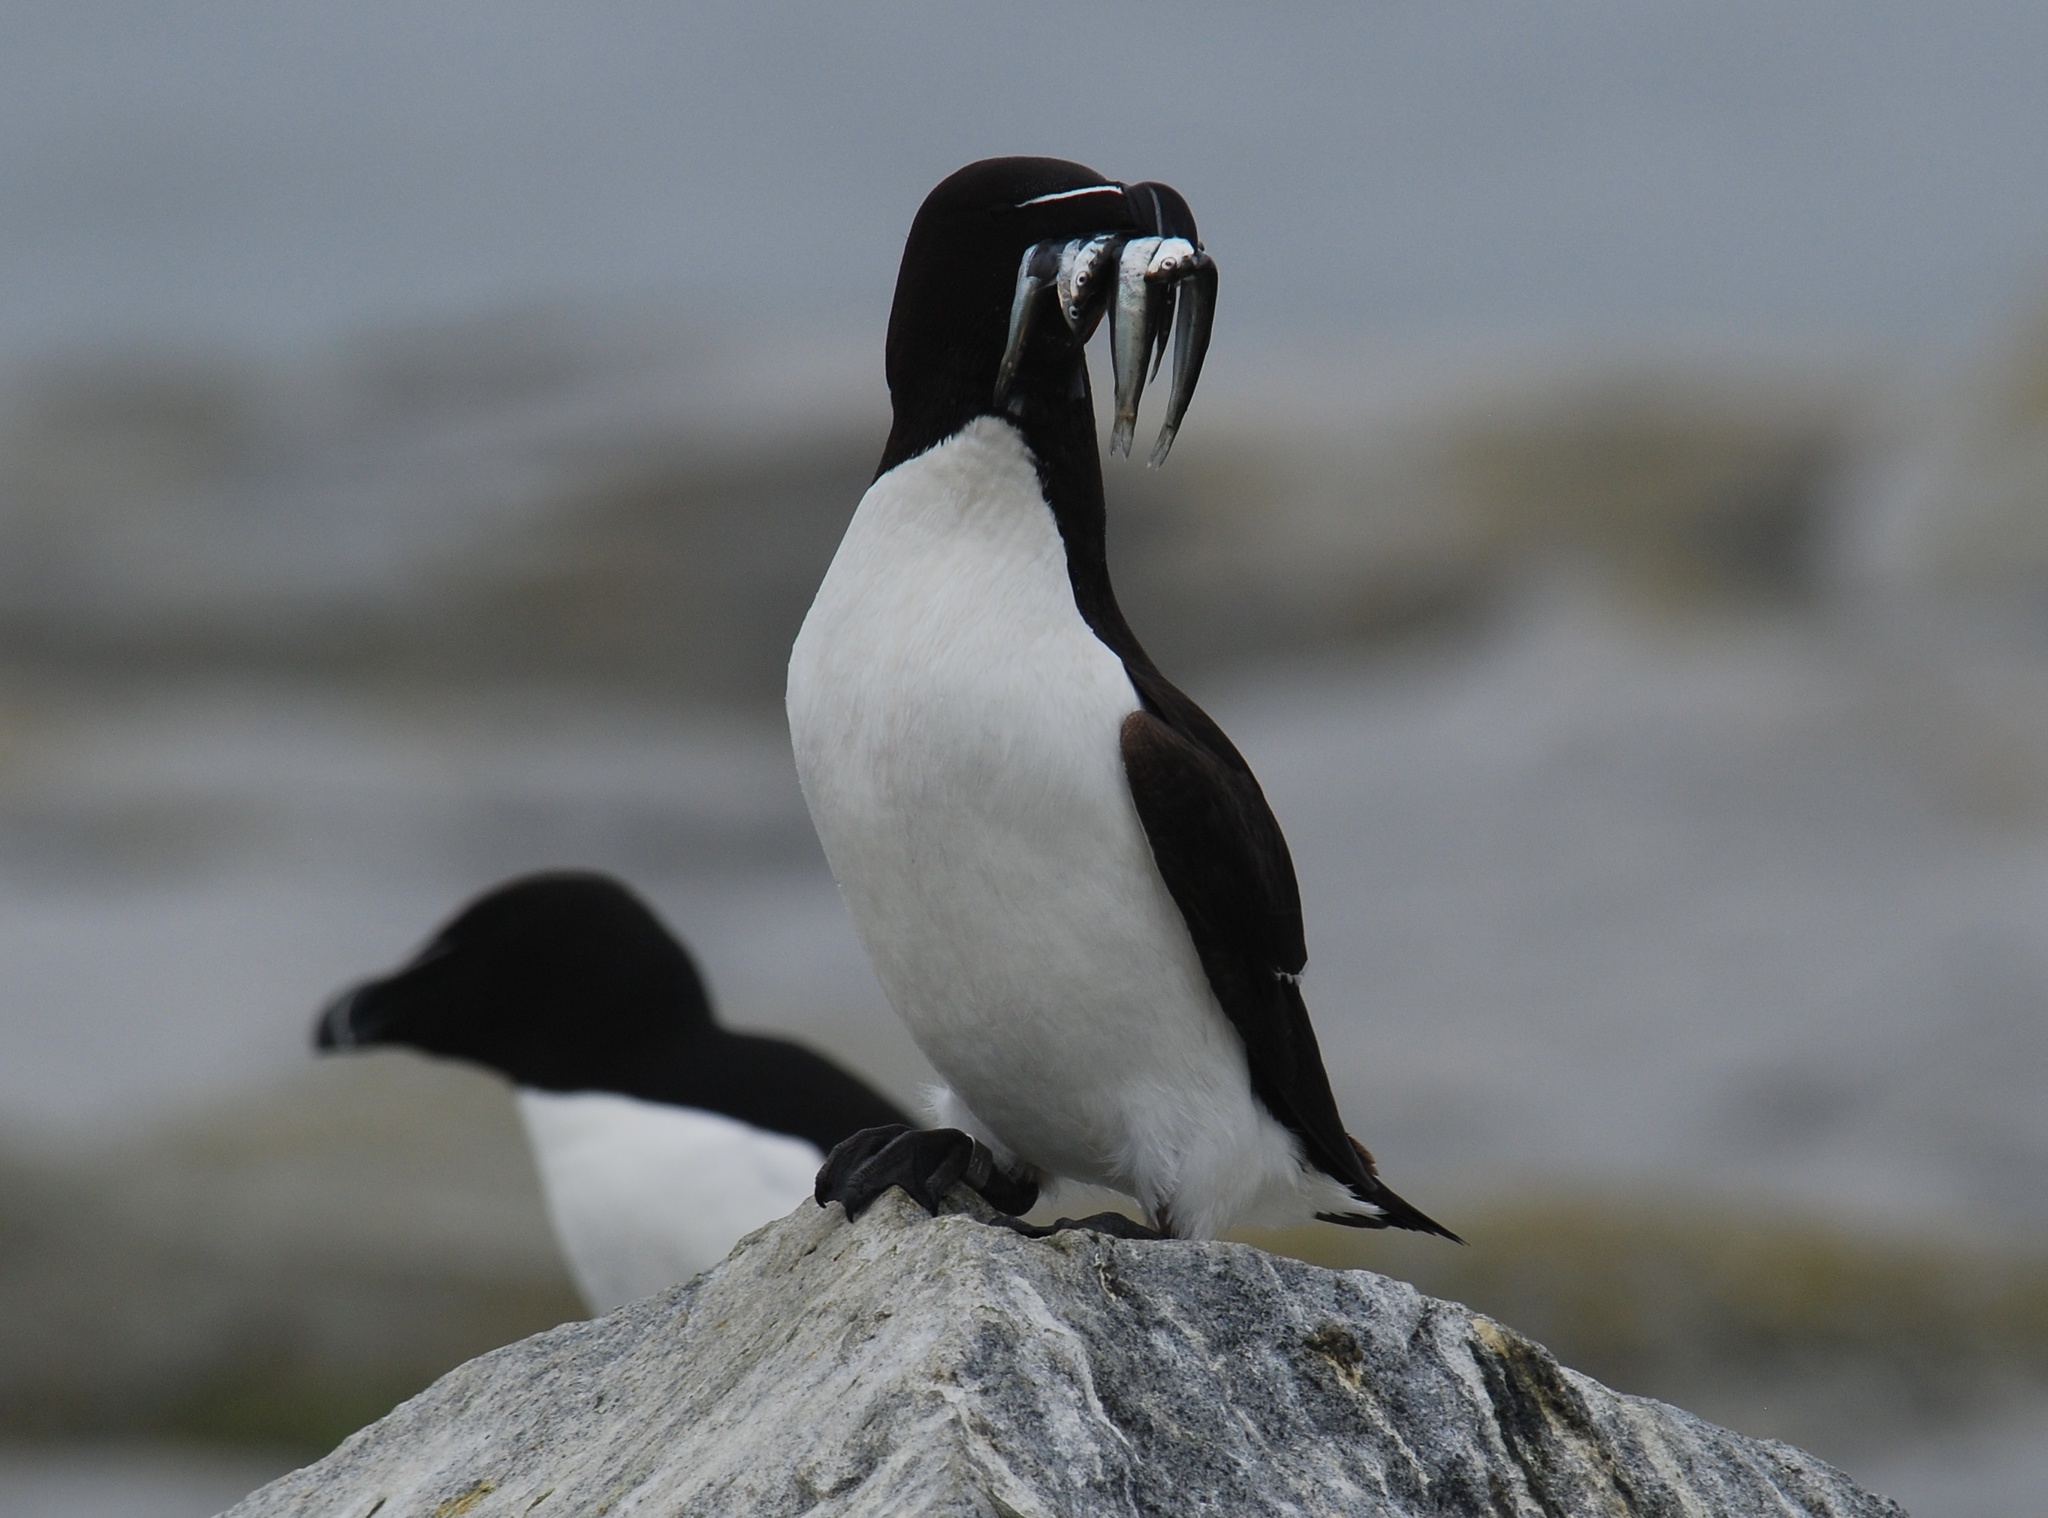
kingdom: Animalia
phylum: Chordata
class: Aves
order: Charadriiformes
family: Alcidae
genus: Alca
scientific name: Alca torda
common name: Razorbill
